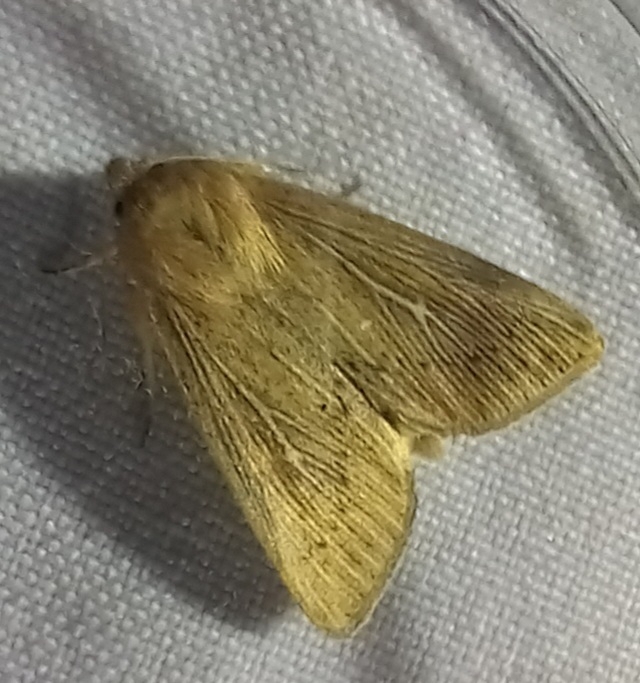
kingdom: Animalia
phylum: Arthropoda
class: Insecta
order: Lepidoptera
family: Noctuidae
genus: Leucania
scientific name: Leucania obsoleta
